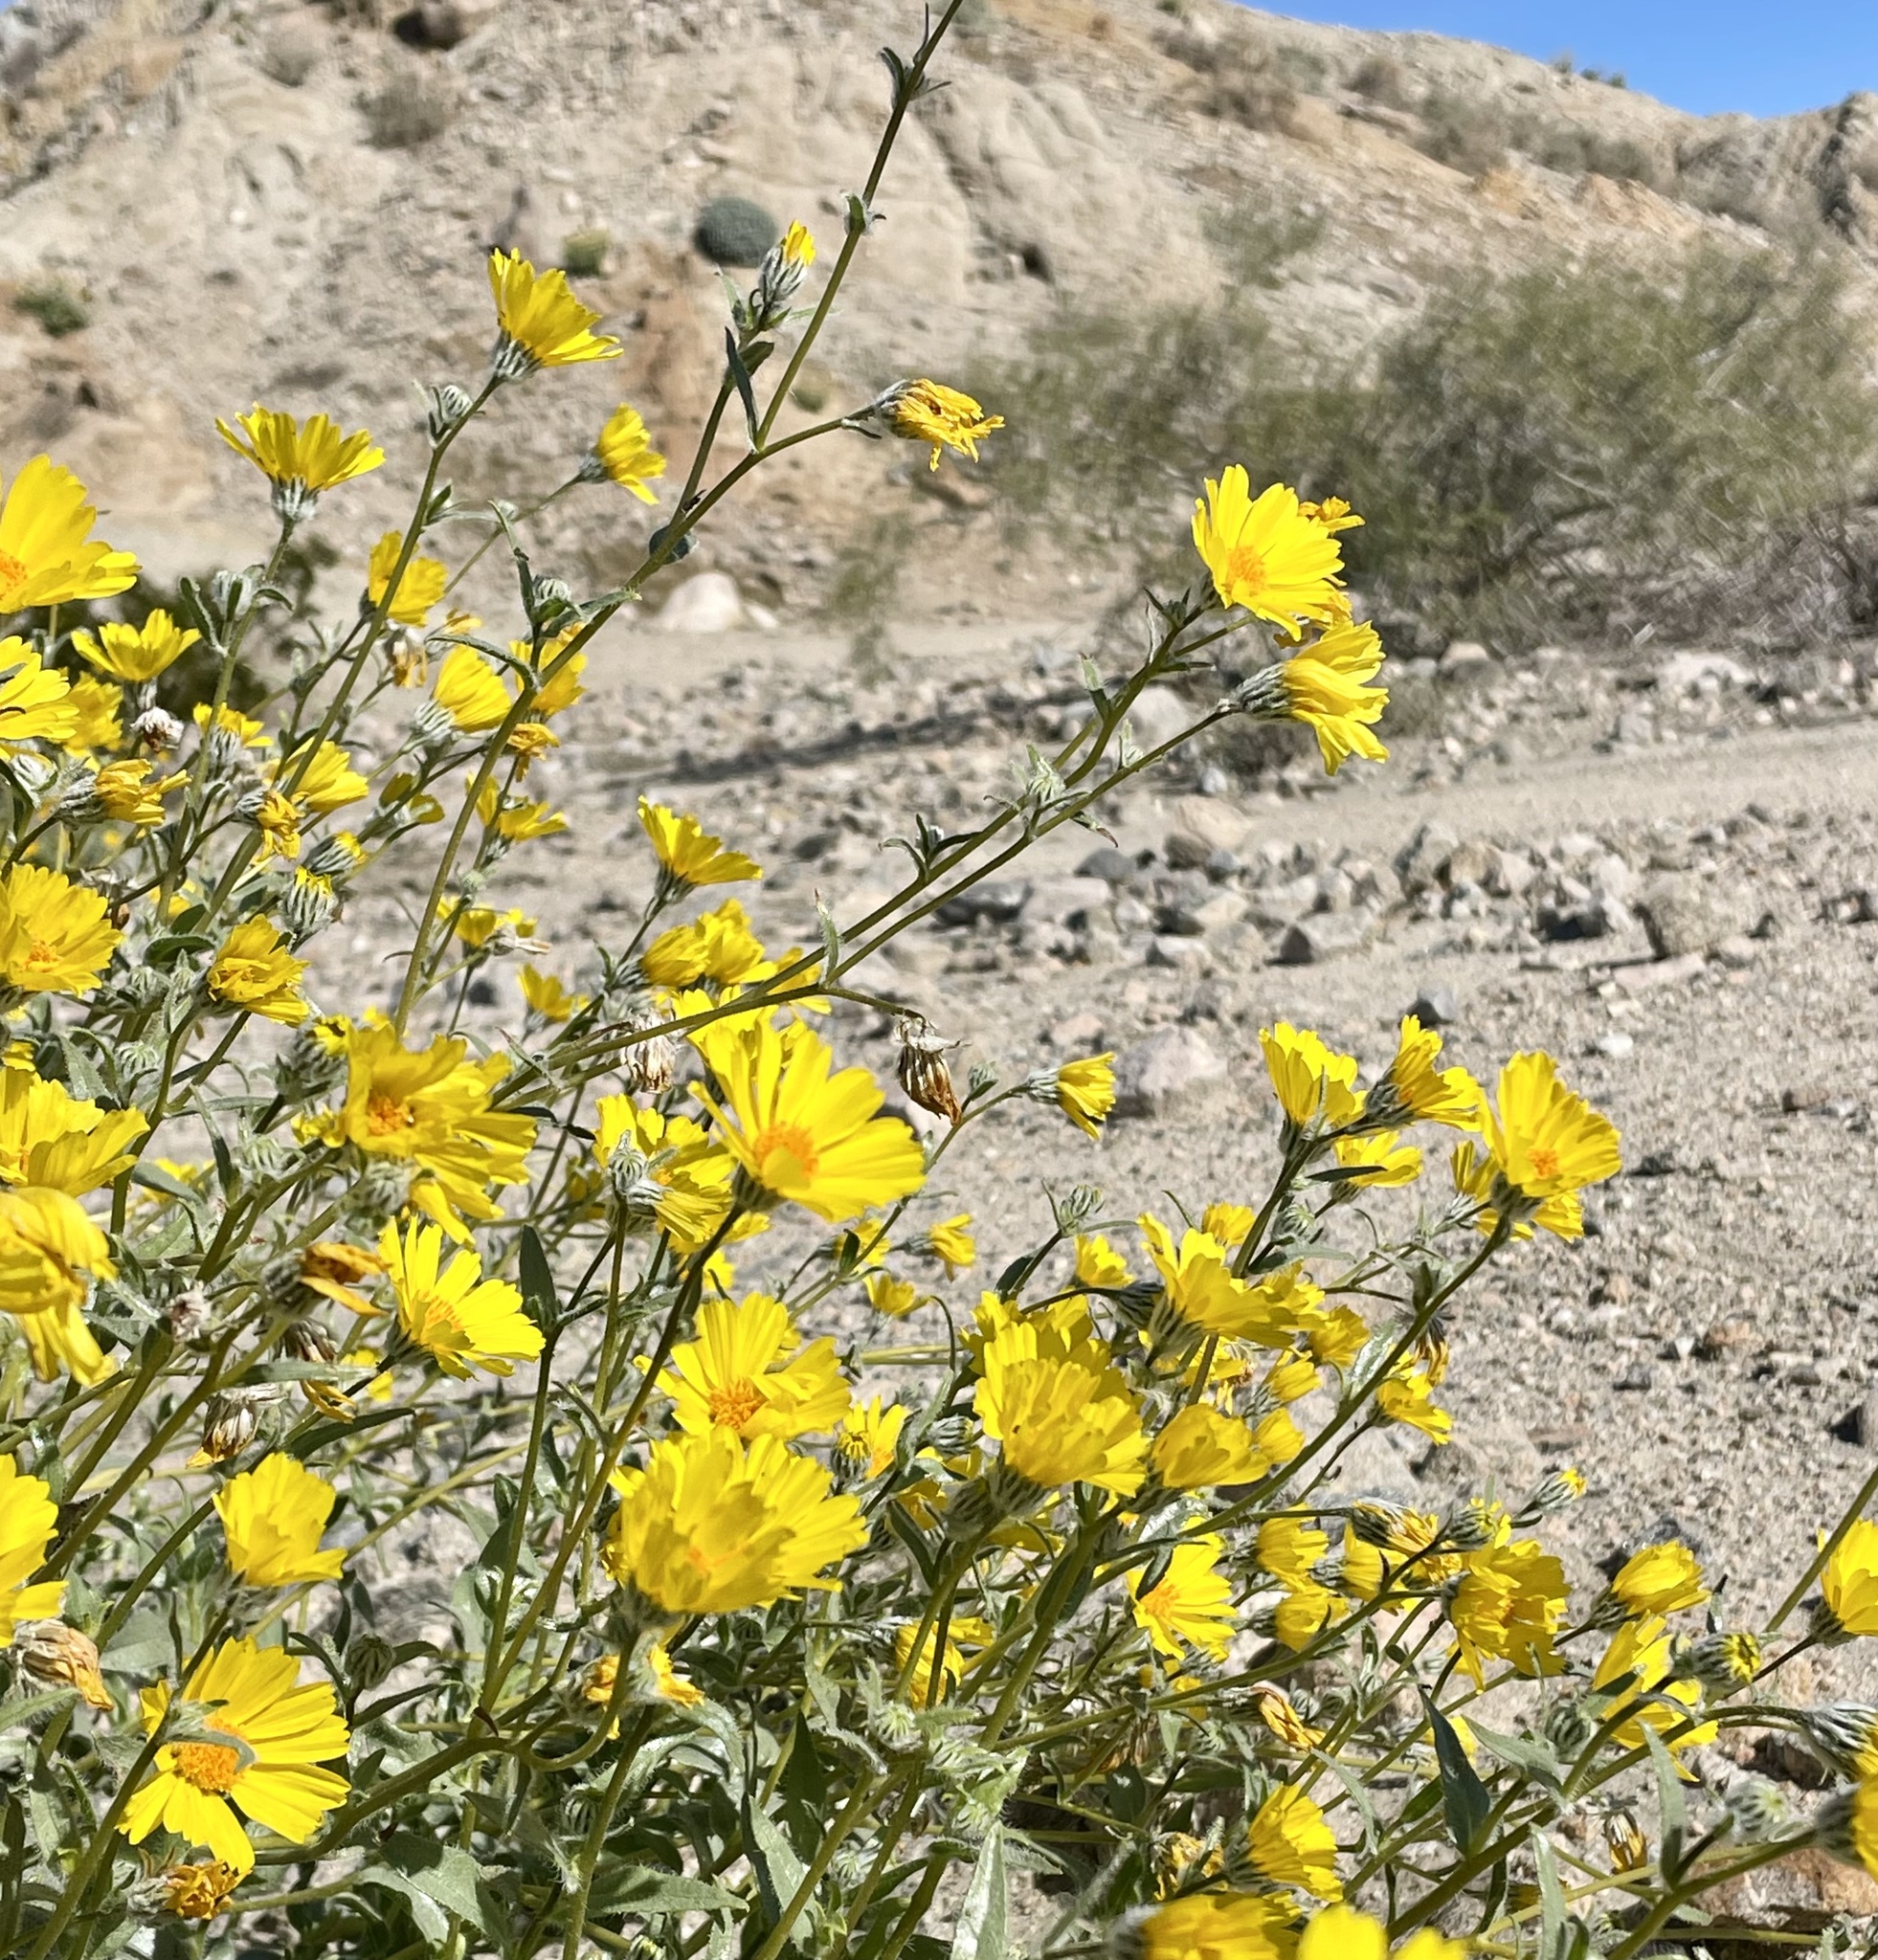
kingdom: Plantae
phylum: Tracheophyta
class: Magnoliopsida
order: Asterales
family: Asteraceae
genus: Geraea
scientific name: Geraea canescens
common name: Desert-gold
